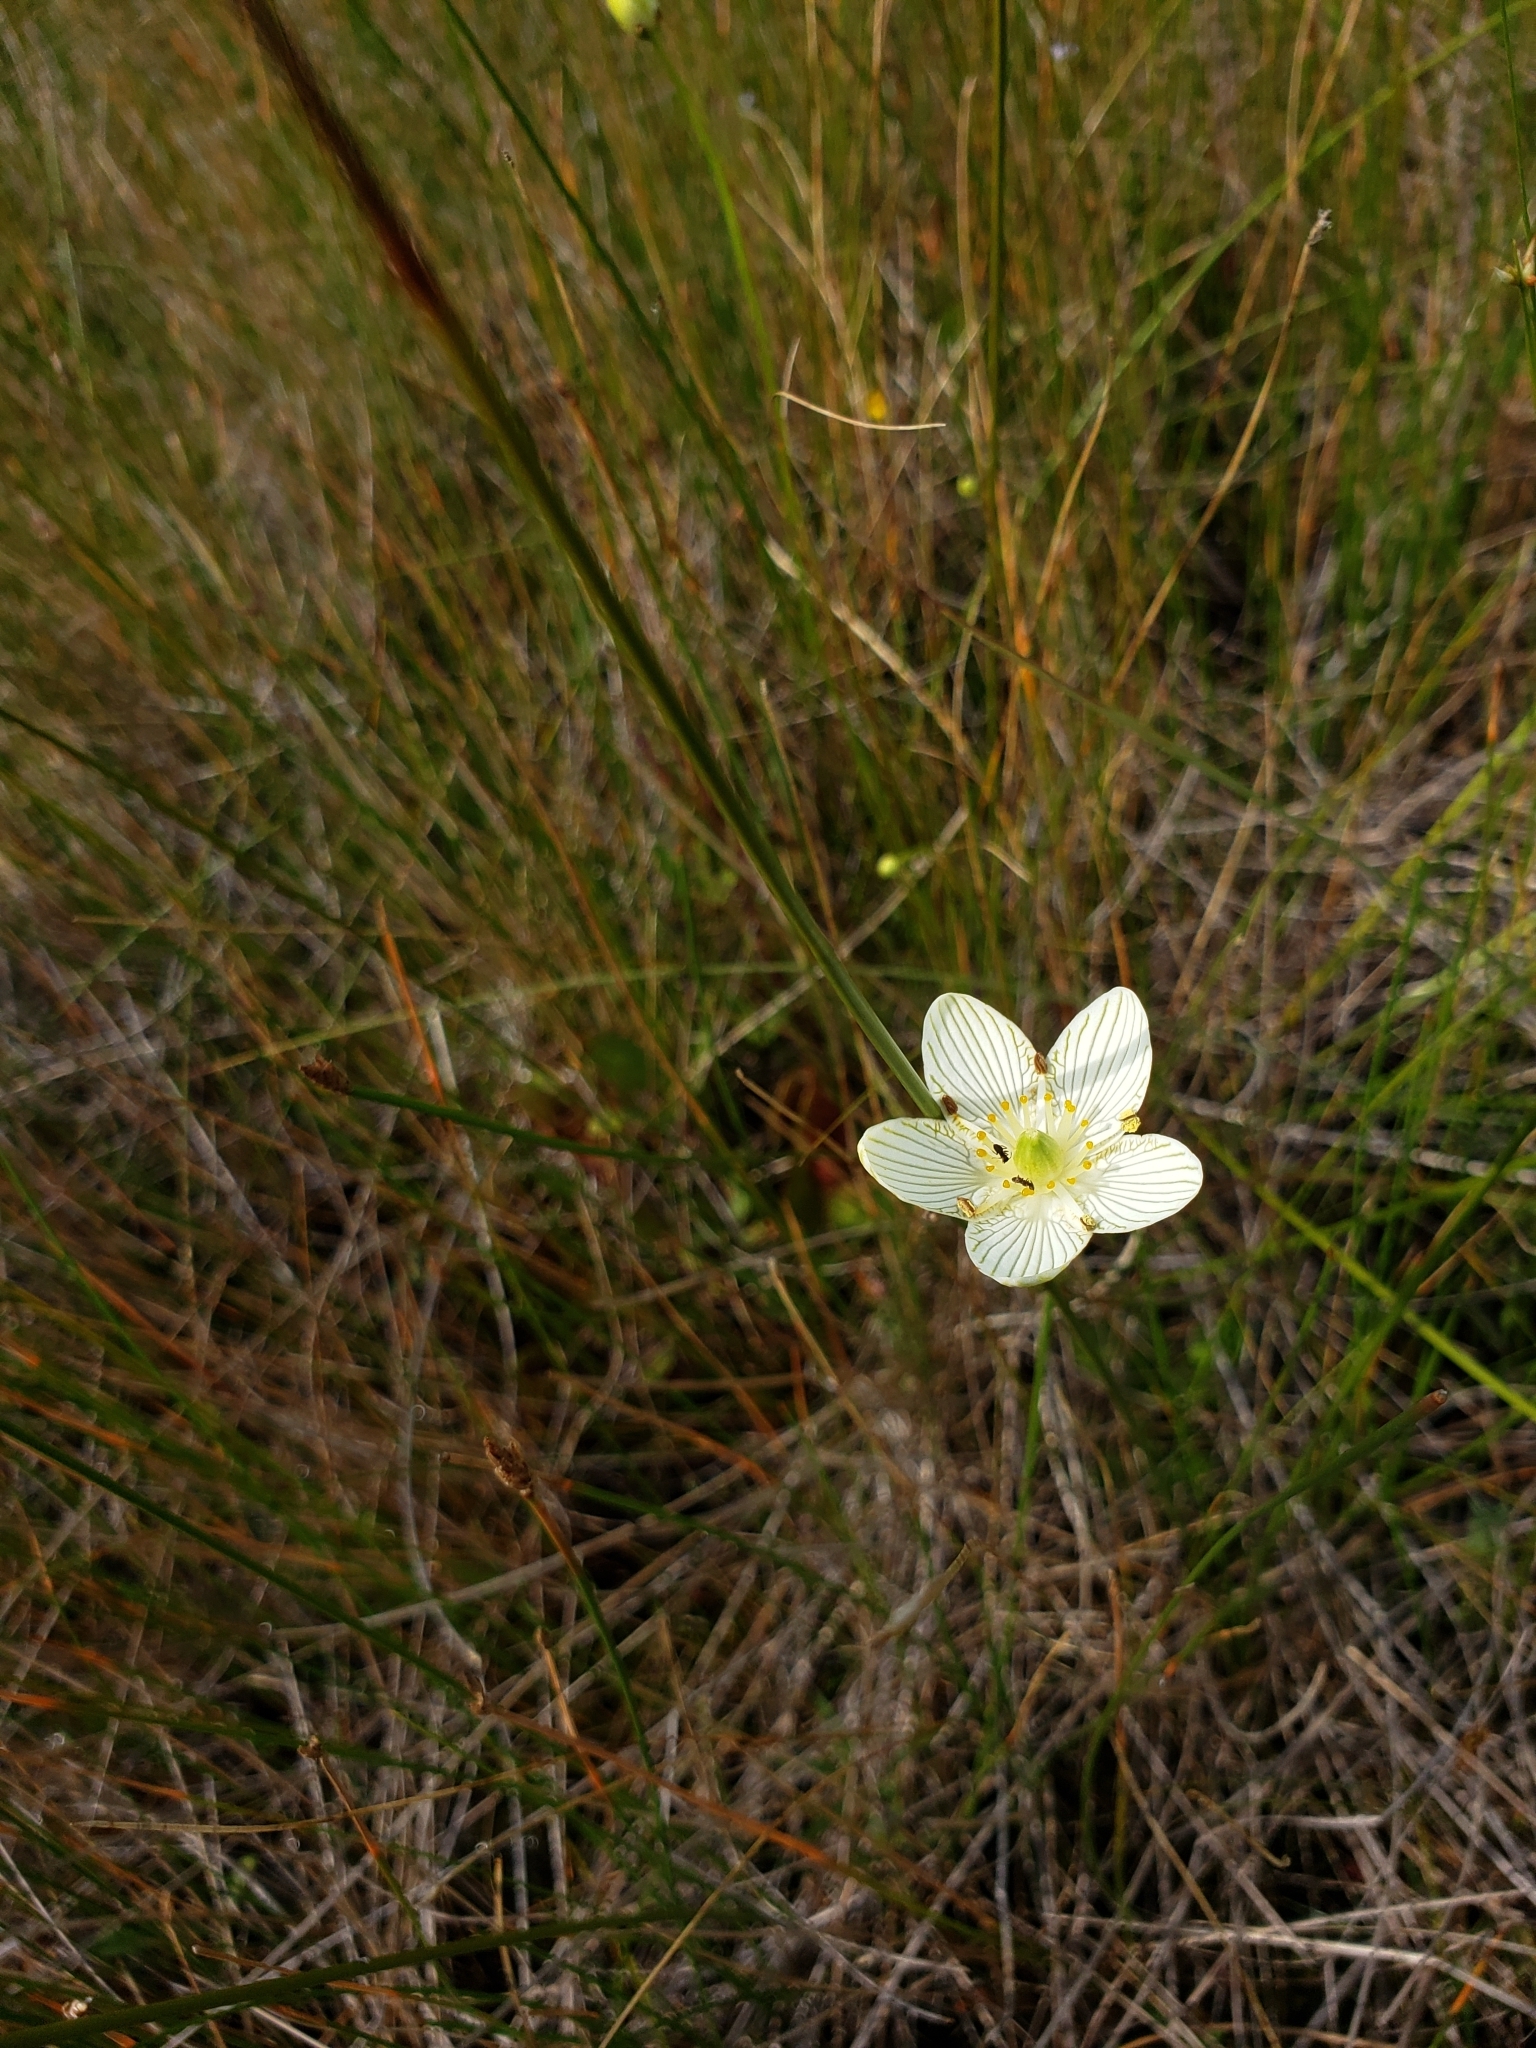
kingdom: Plantae
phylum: Tracheophyta
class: Magnoliopsida
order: Celastrales
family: Parnassiaceae
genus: Parnassia
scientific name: Parnassia glauca
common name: American grass-of-parnassus
